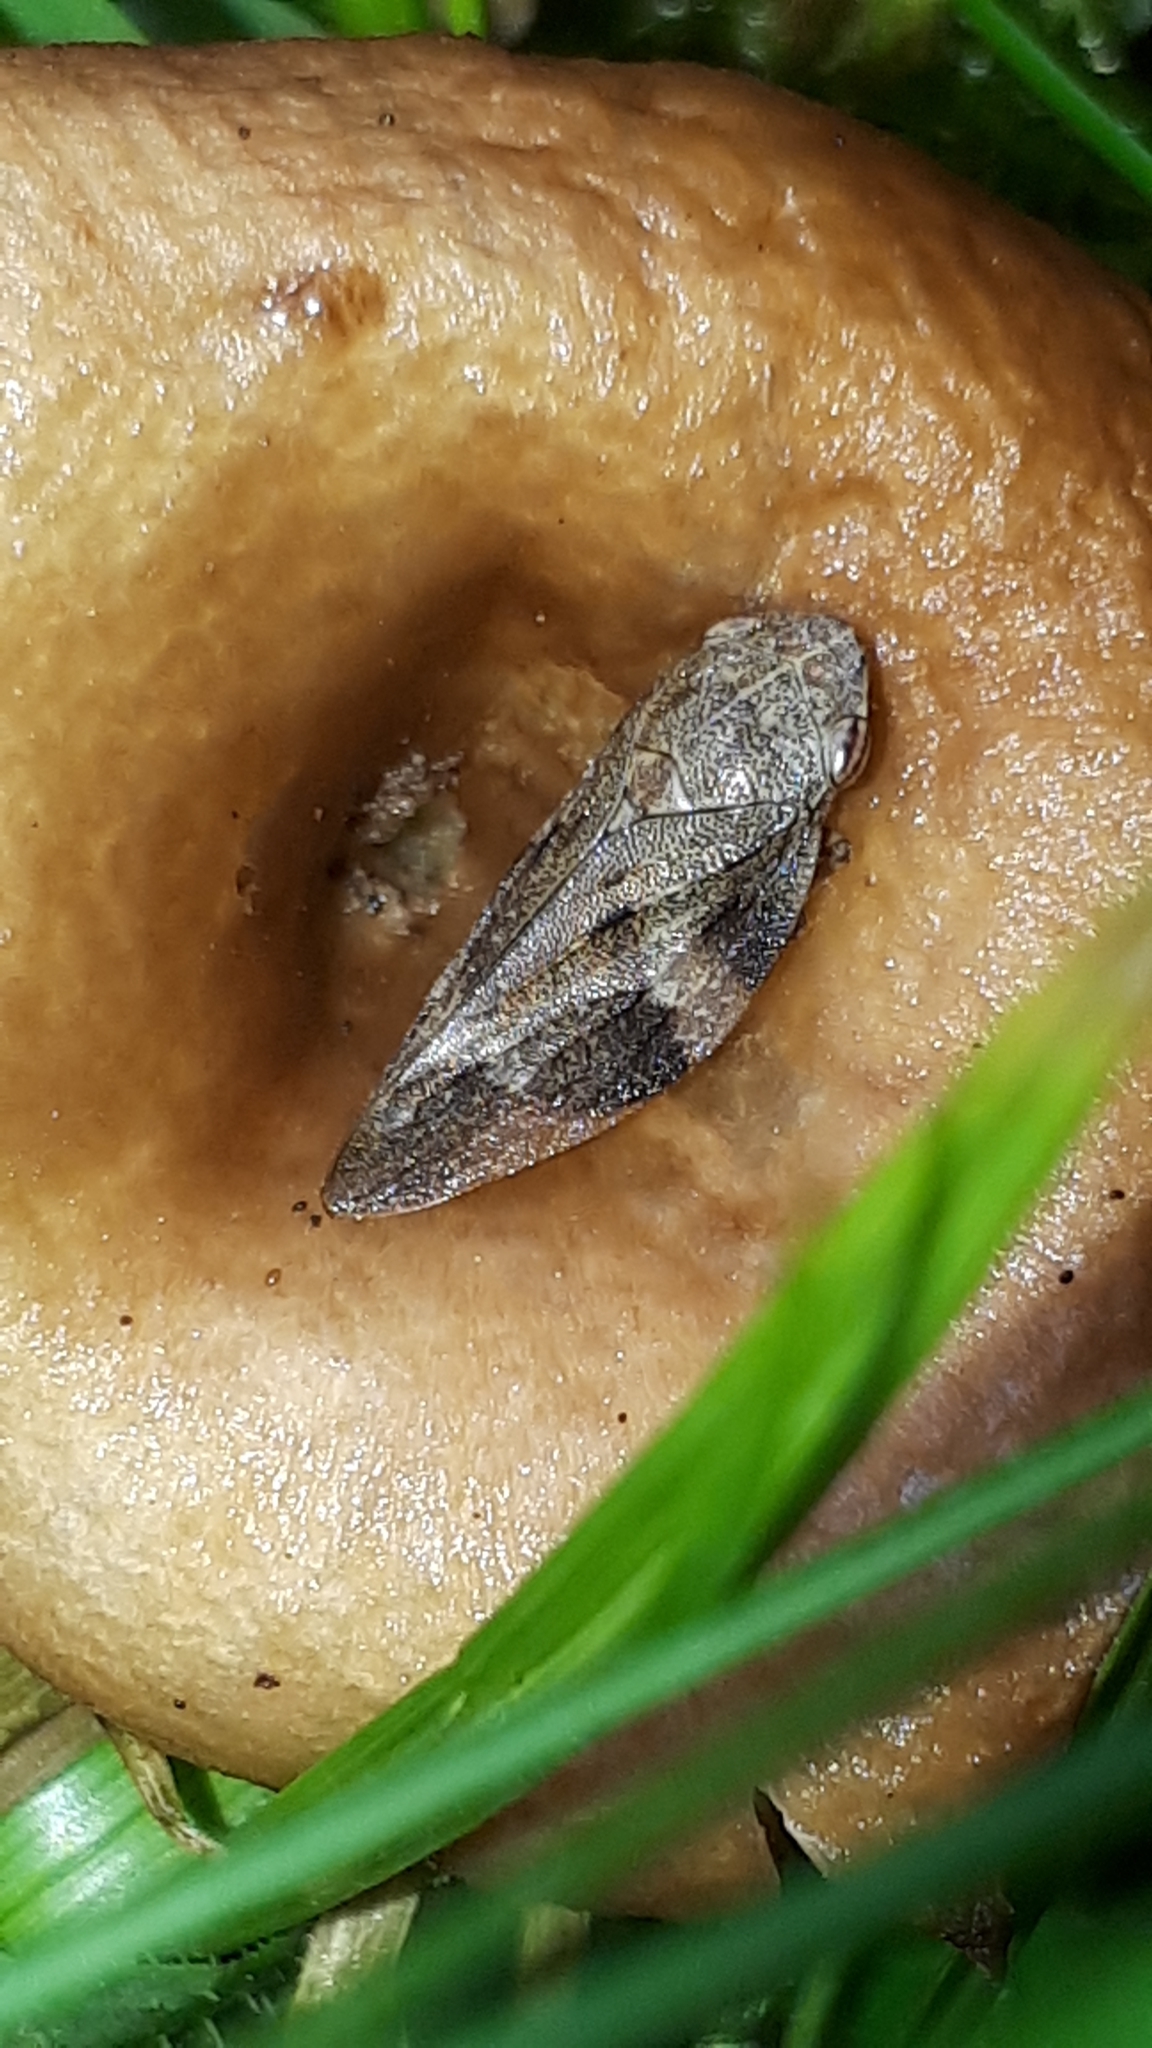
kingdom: Animalia
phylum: Arthropoda
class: Insecta
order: Hemiptera
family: Aphrophoridae
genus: Aphrophora
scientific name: Aphrophora alni
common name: European alder spittlebug
